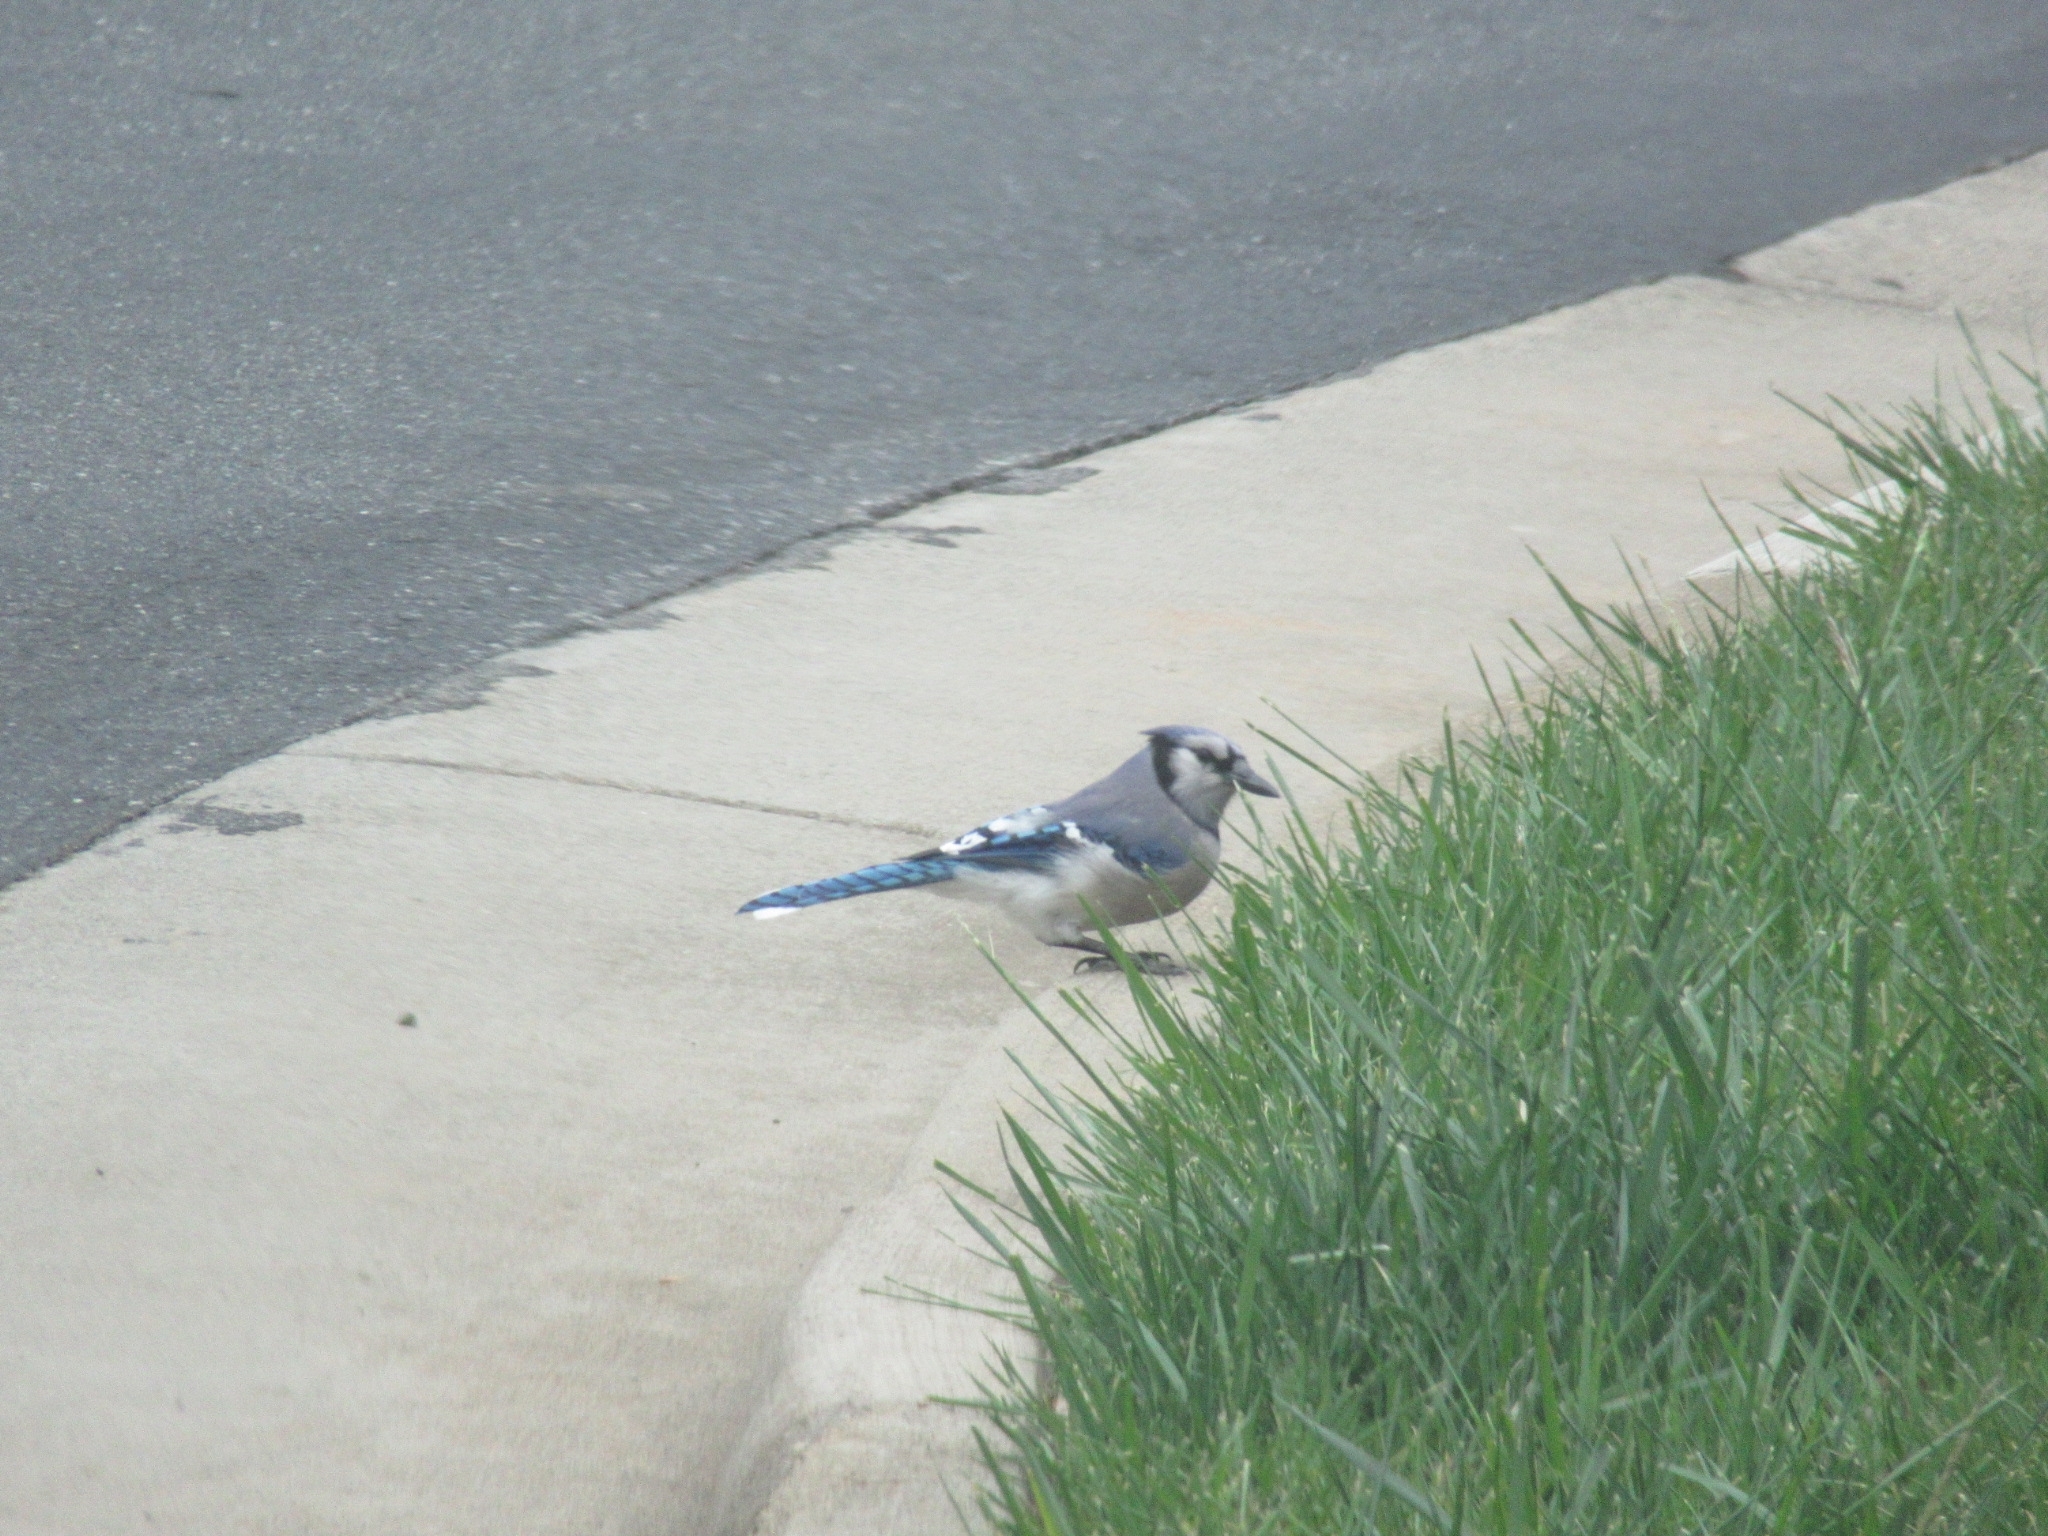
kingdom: Animalia
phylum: Chordata
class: Aves
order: Passeriformes
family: Corvidae
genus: Cyanocitta
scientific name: Cyanocitta cristata
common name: Blue jay
